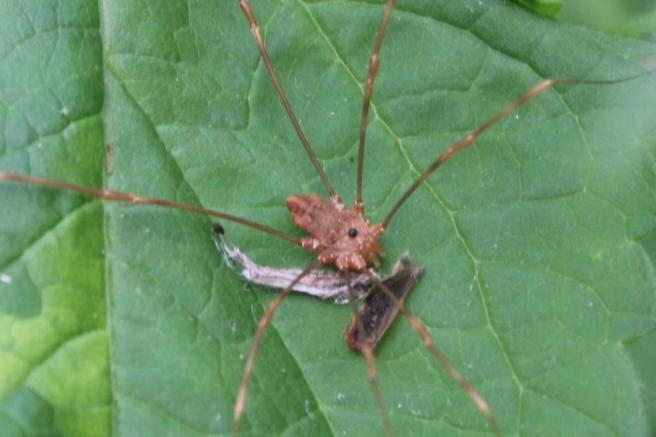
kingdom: Animalia
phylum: Arthropoda
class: Arachnida
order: Opiliones
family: Sclerosomatidae
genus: Leiobunum
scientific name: Leiobunum ventricosum
